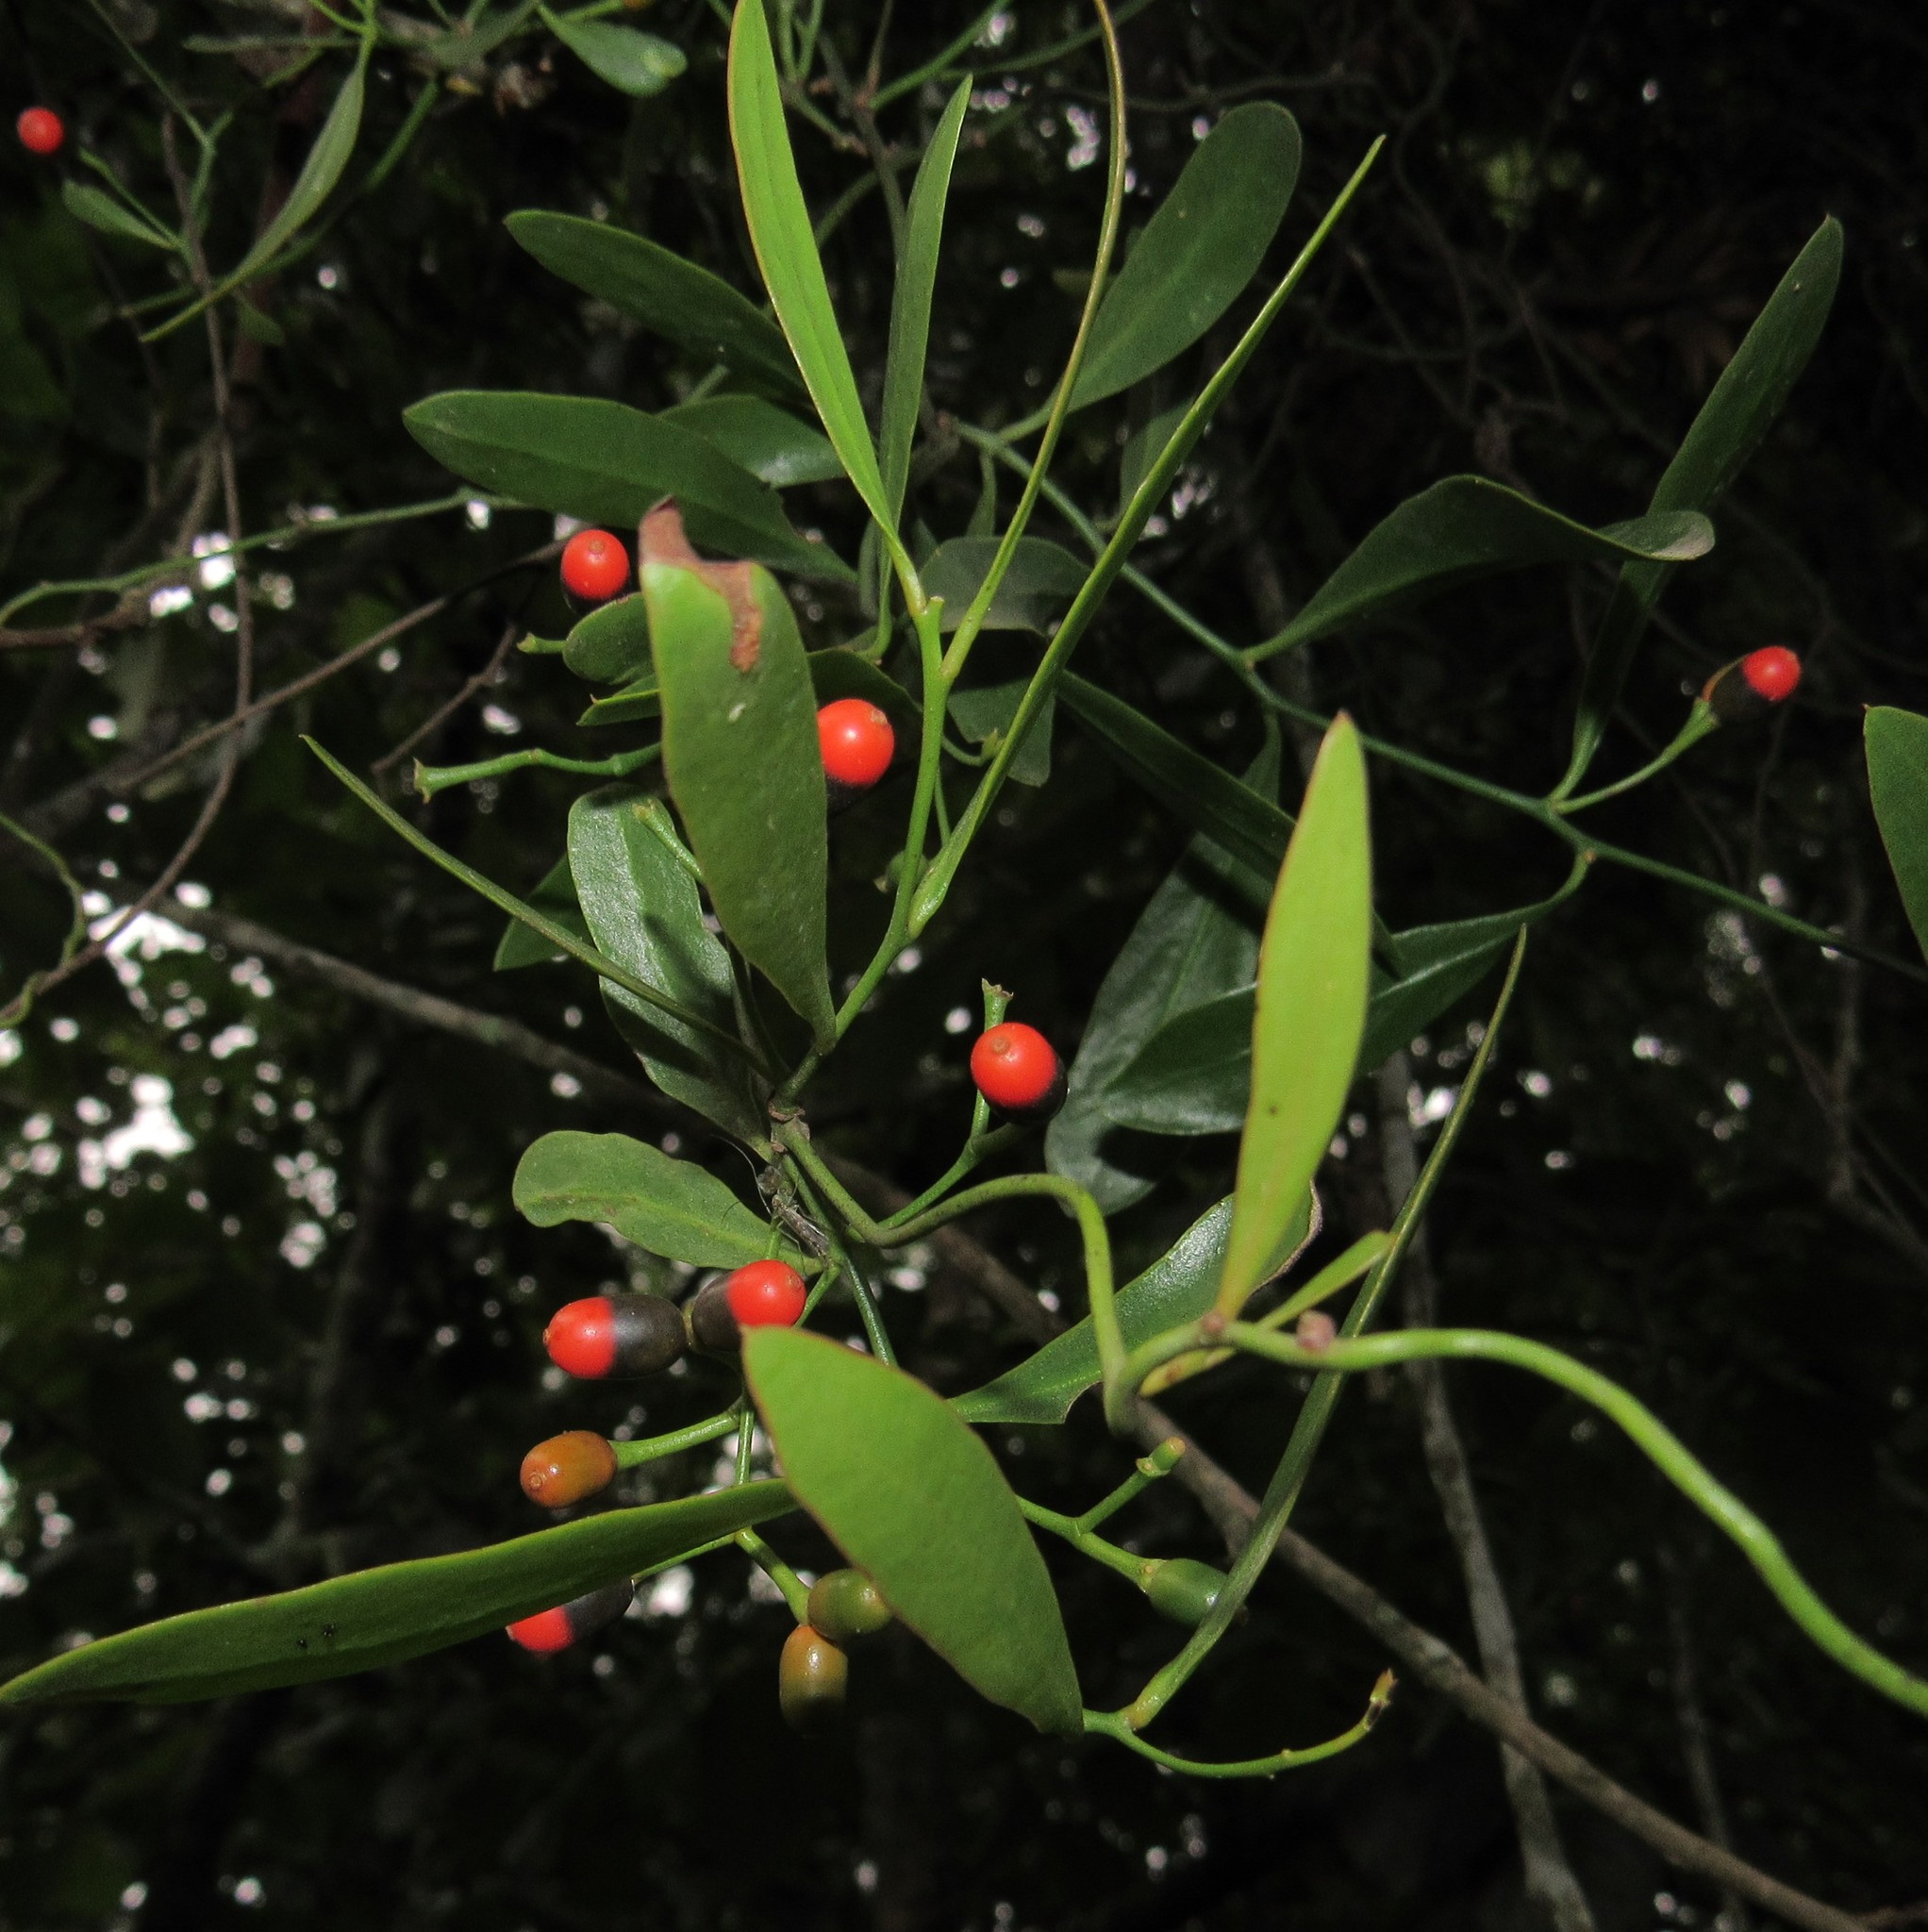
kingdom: Plantae
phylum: Tracheophyta
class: Magnoliopsida
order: Santalales
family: Loranthaceae
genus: Struthanthus
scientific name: Struthanthus uraguensis
